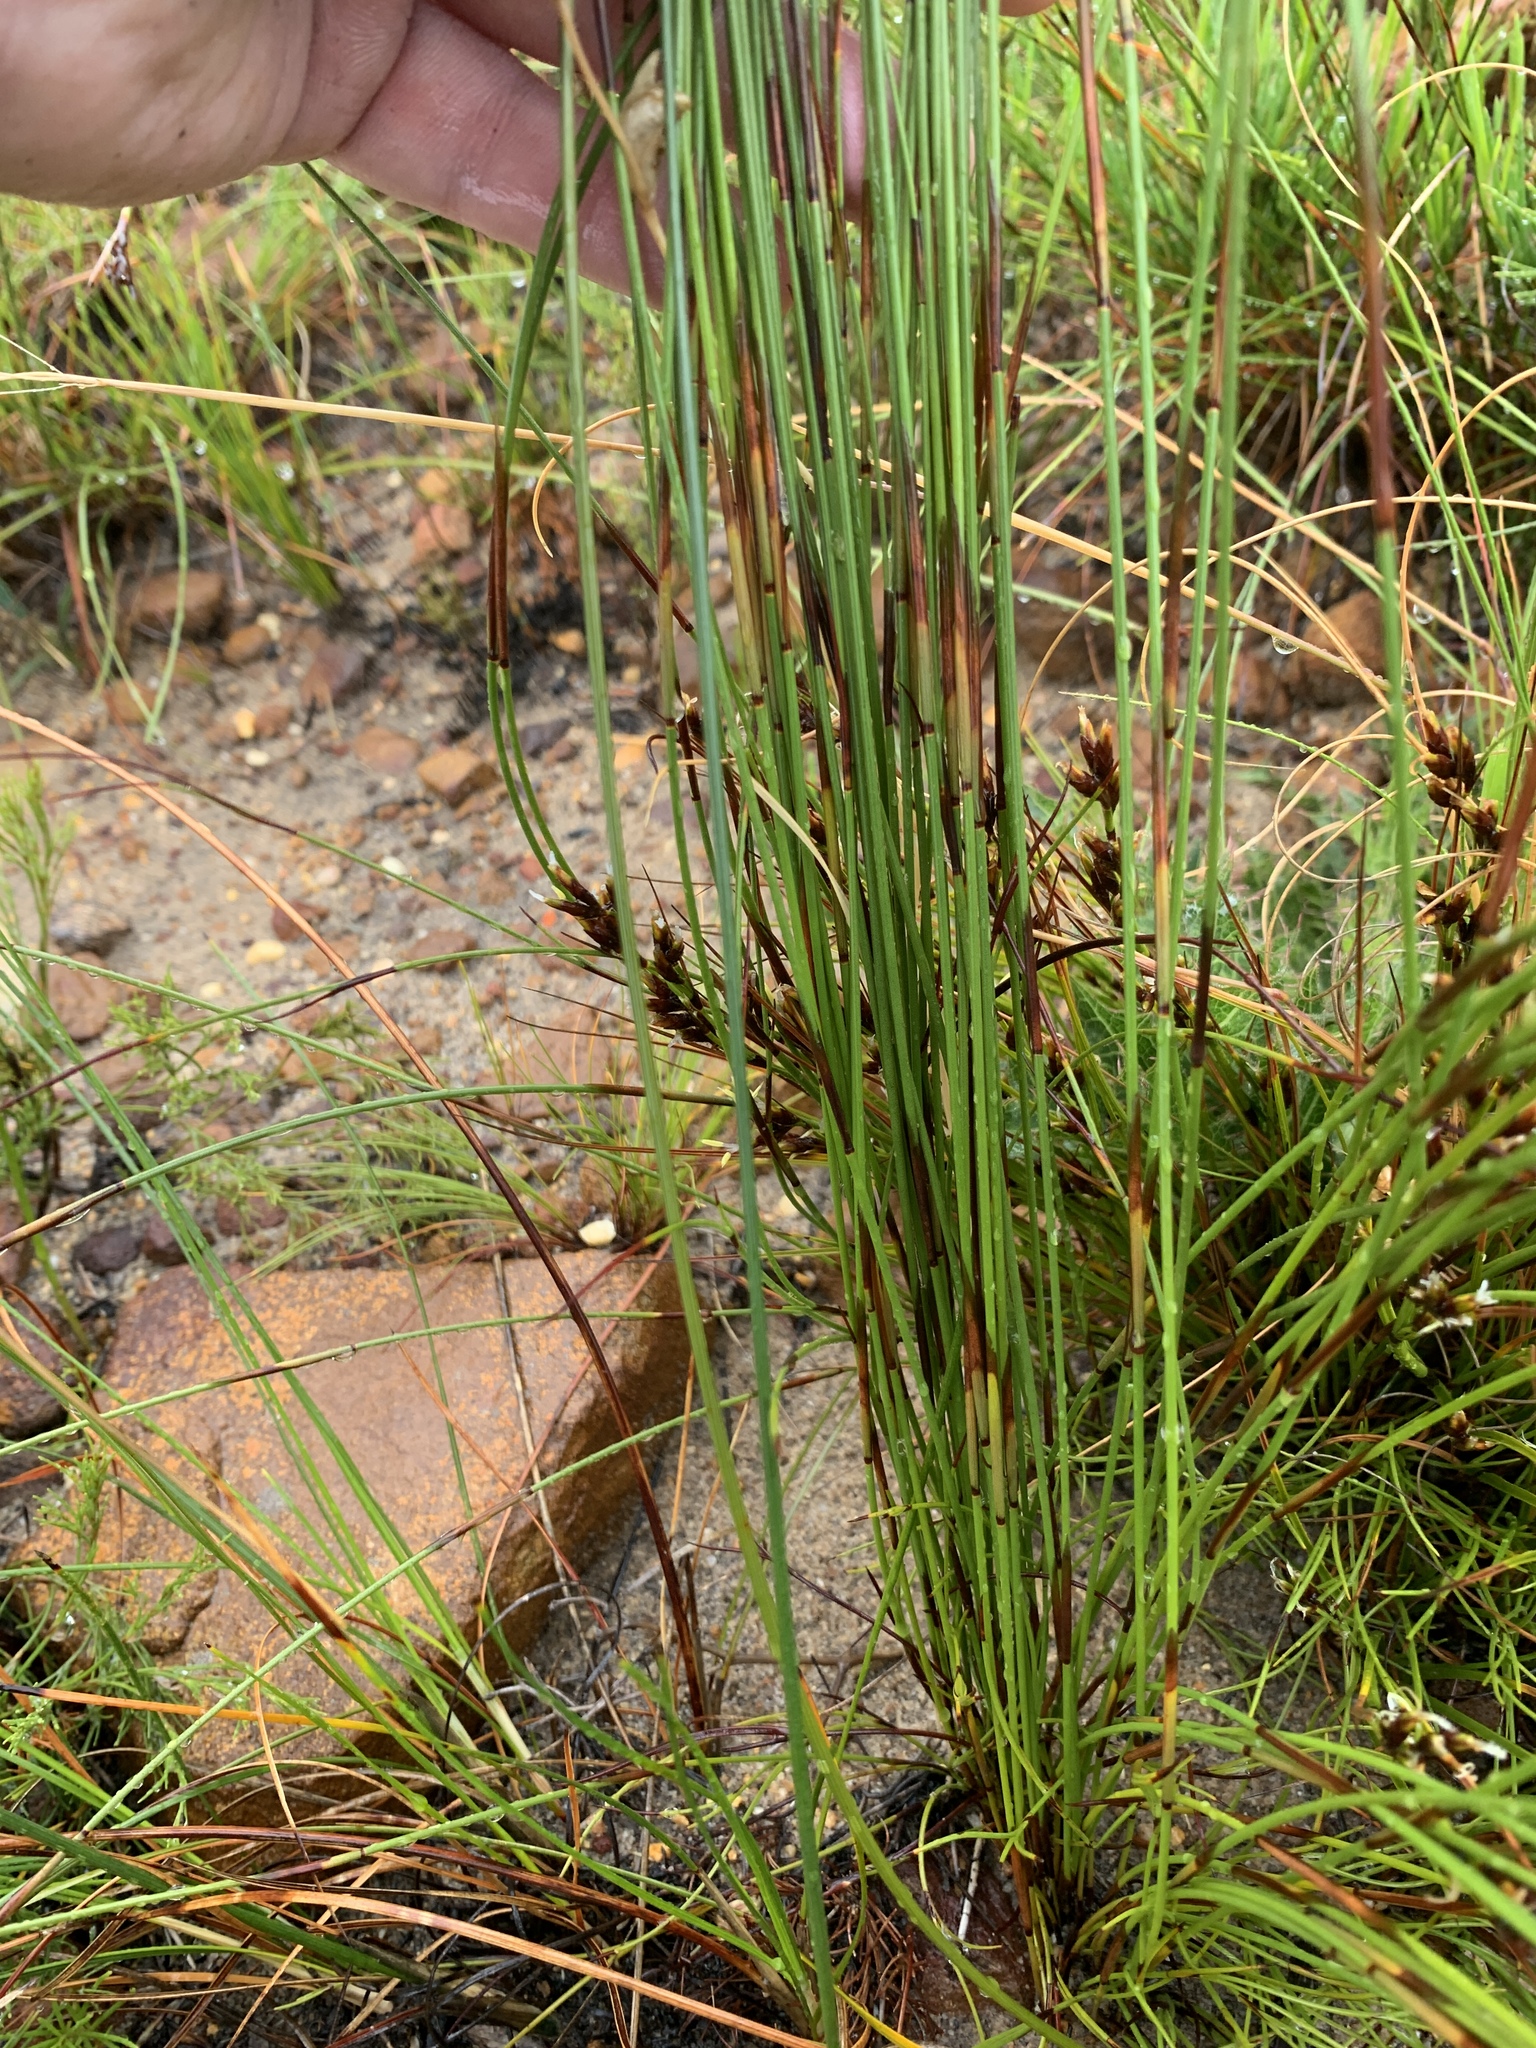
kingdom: Plantae
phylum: Tracheophyta
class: Liliopsida
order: Poales
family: Restionaceae
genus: Staberoha
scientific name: Staberoha cernua
